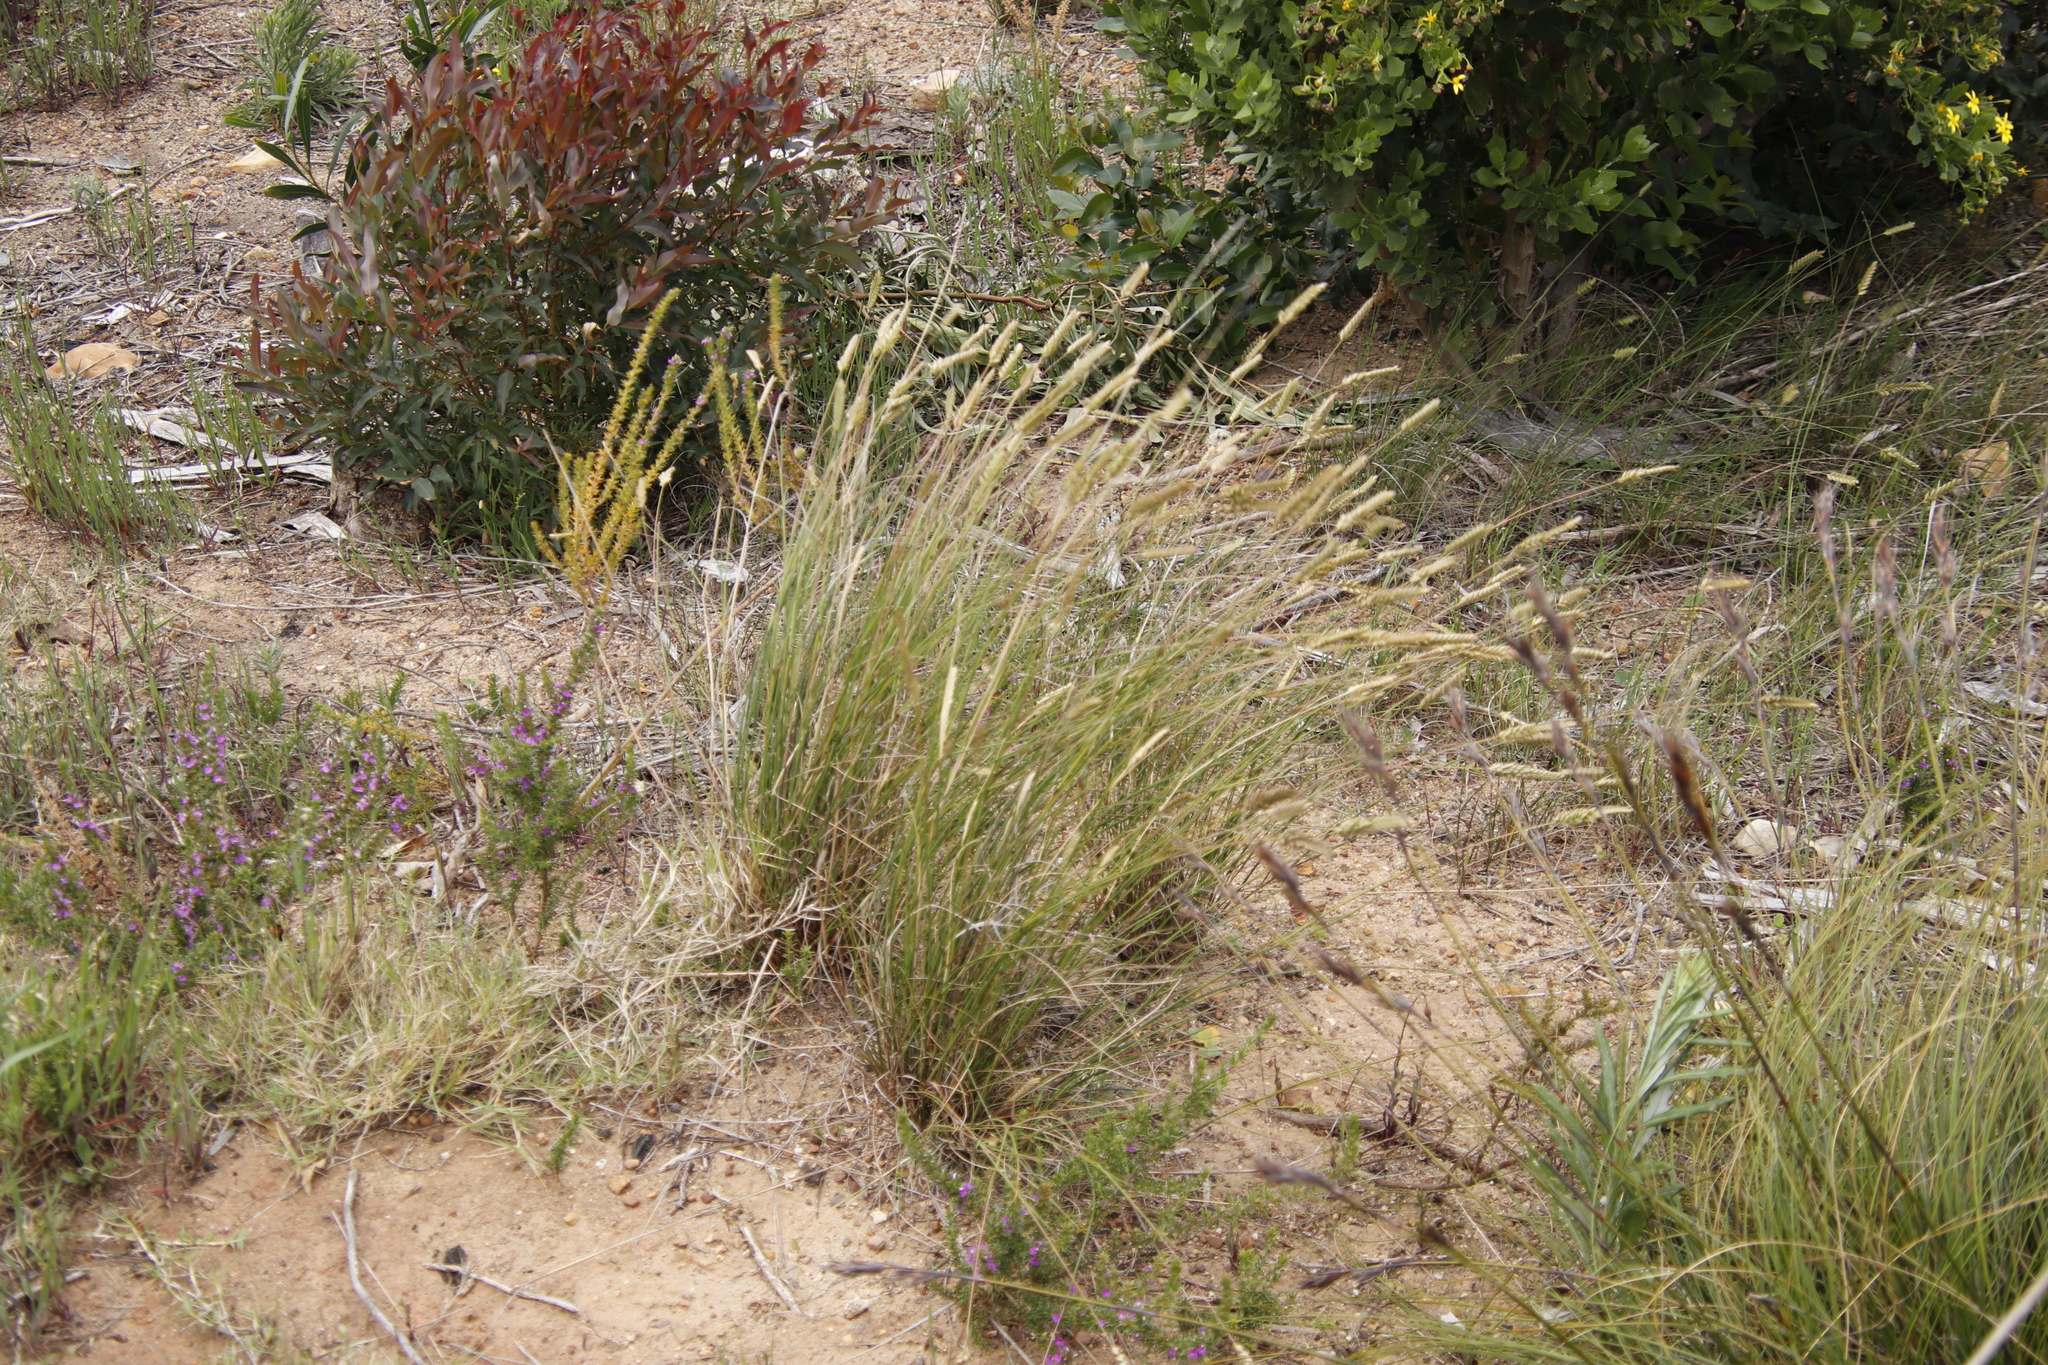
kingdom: Plantae
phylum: Tracheophyta
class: Liliopsida
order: Poales
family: Poaceae
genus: Tribolium
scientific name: Tribolium uniolae
